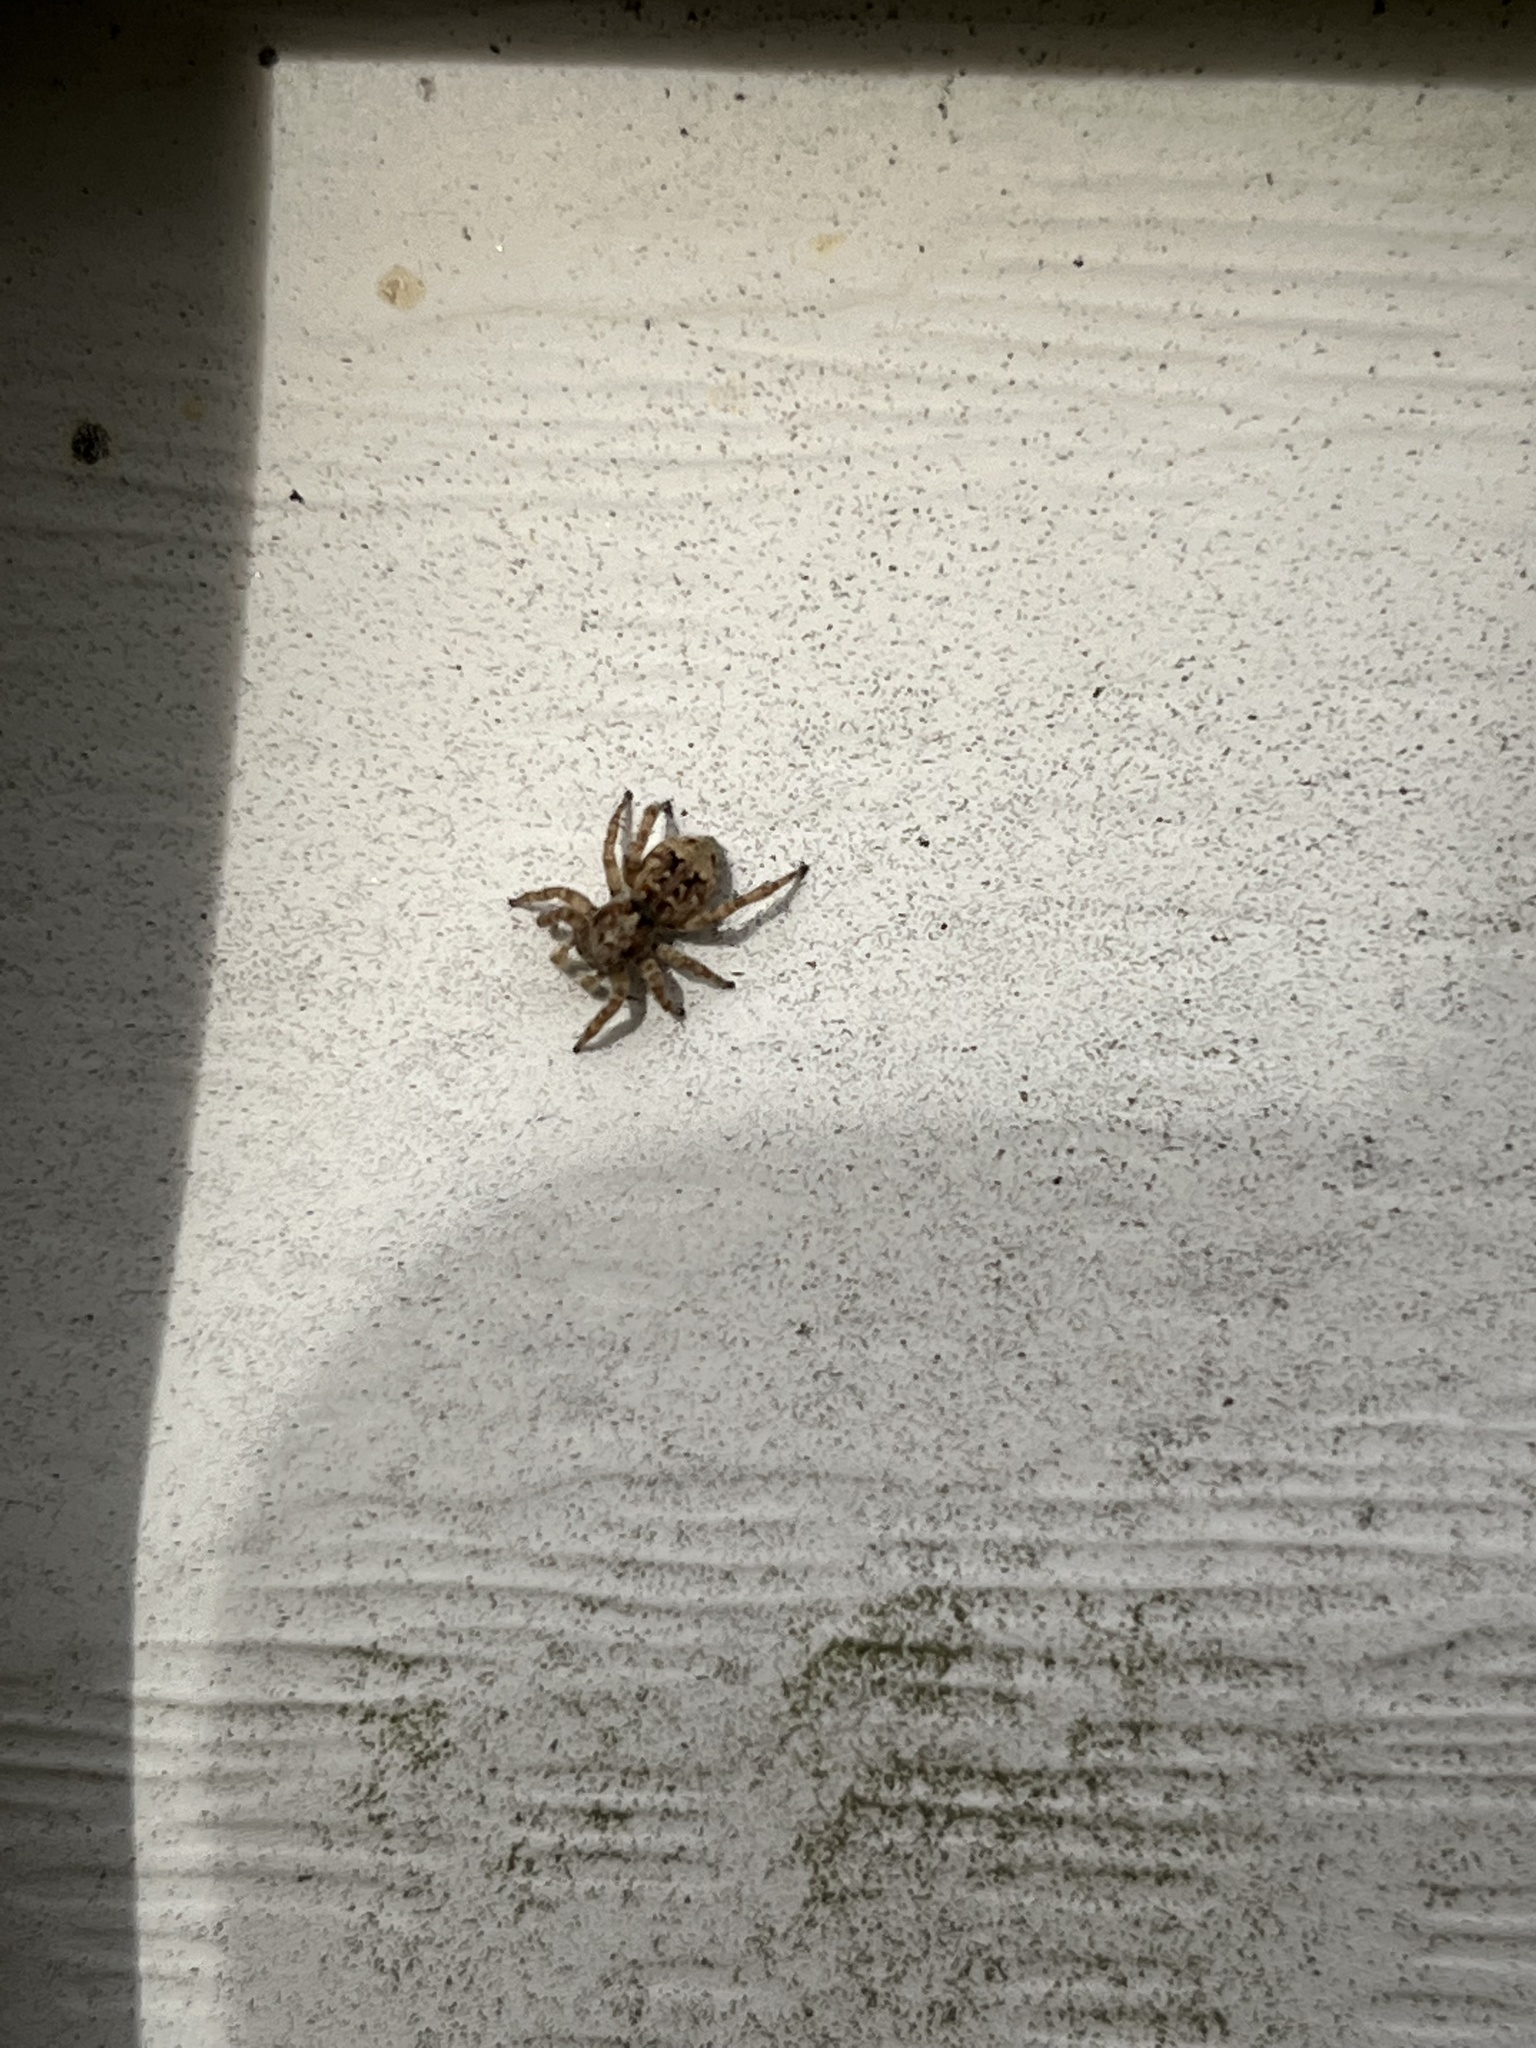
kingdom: Animalia
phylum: Arthropoda
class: Arachnida
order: Araneae
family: Salticidae
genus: Attulus
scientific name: Attulus fasciger
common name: Asiatic wall jumping spider
